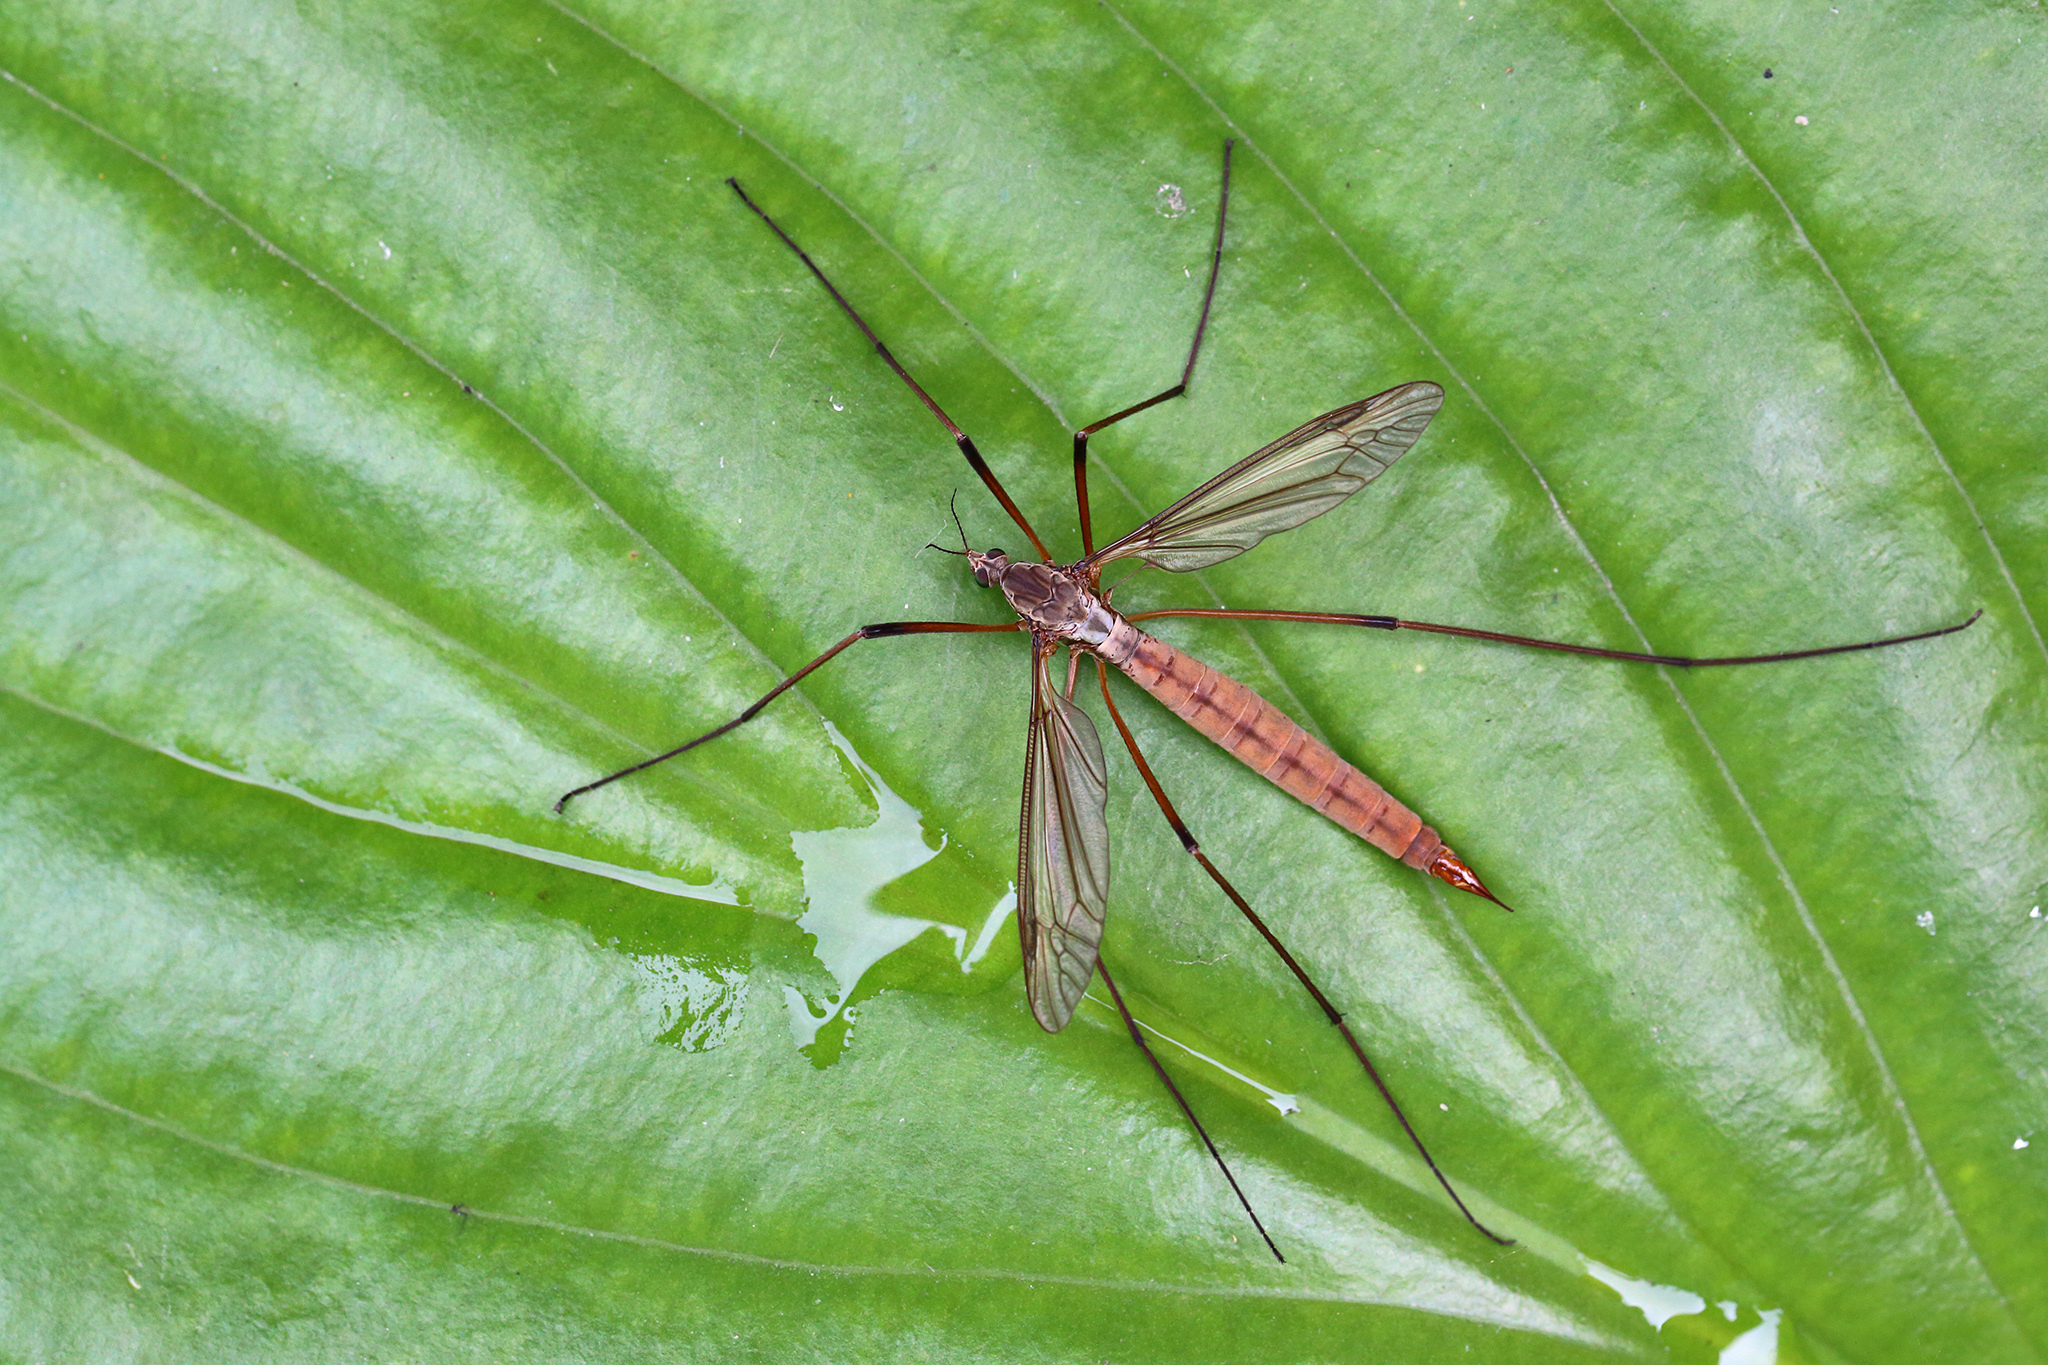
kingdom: Animalia
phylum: Arthropoda
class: Insecta
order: Diptera
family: Tipulidae
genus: Tipula
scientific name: Tipula paludosa
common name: European cranefly
